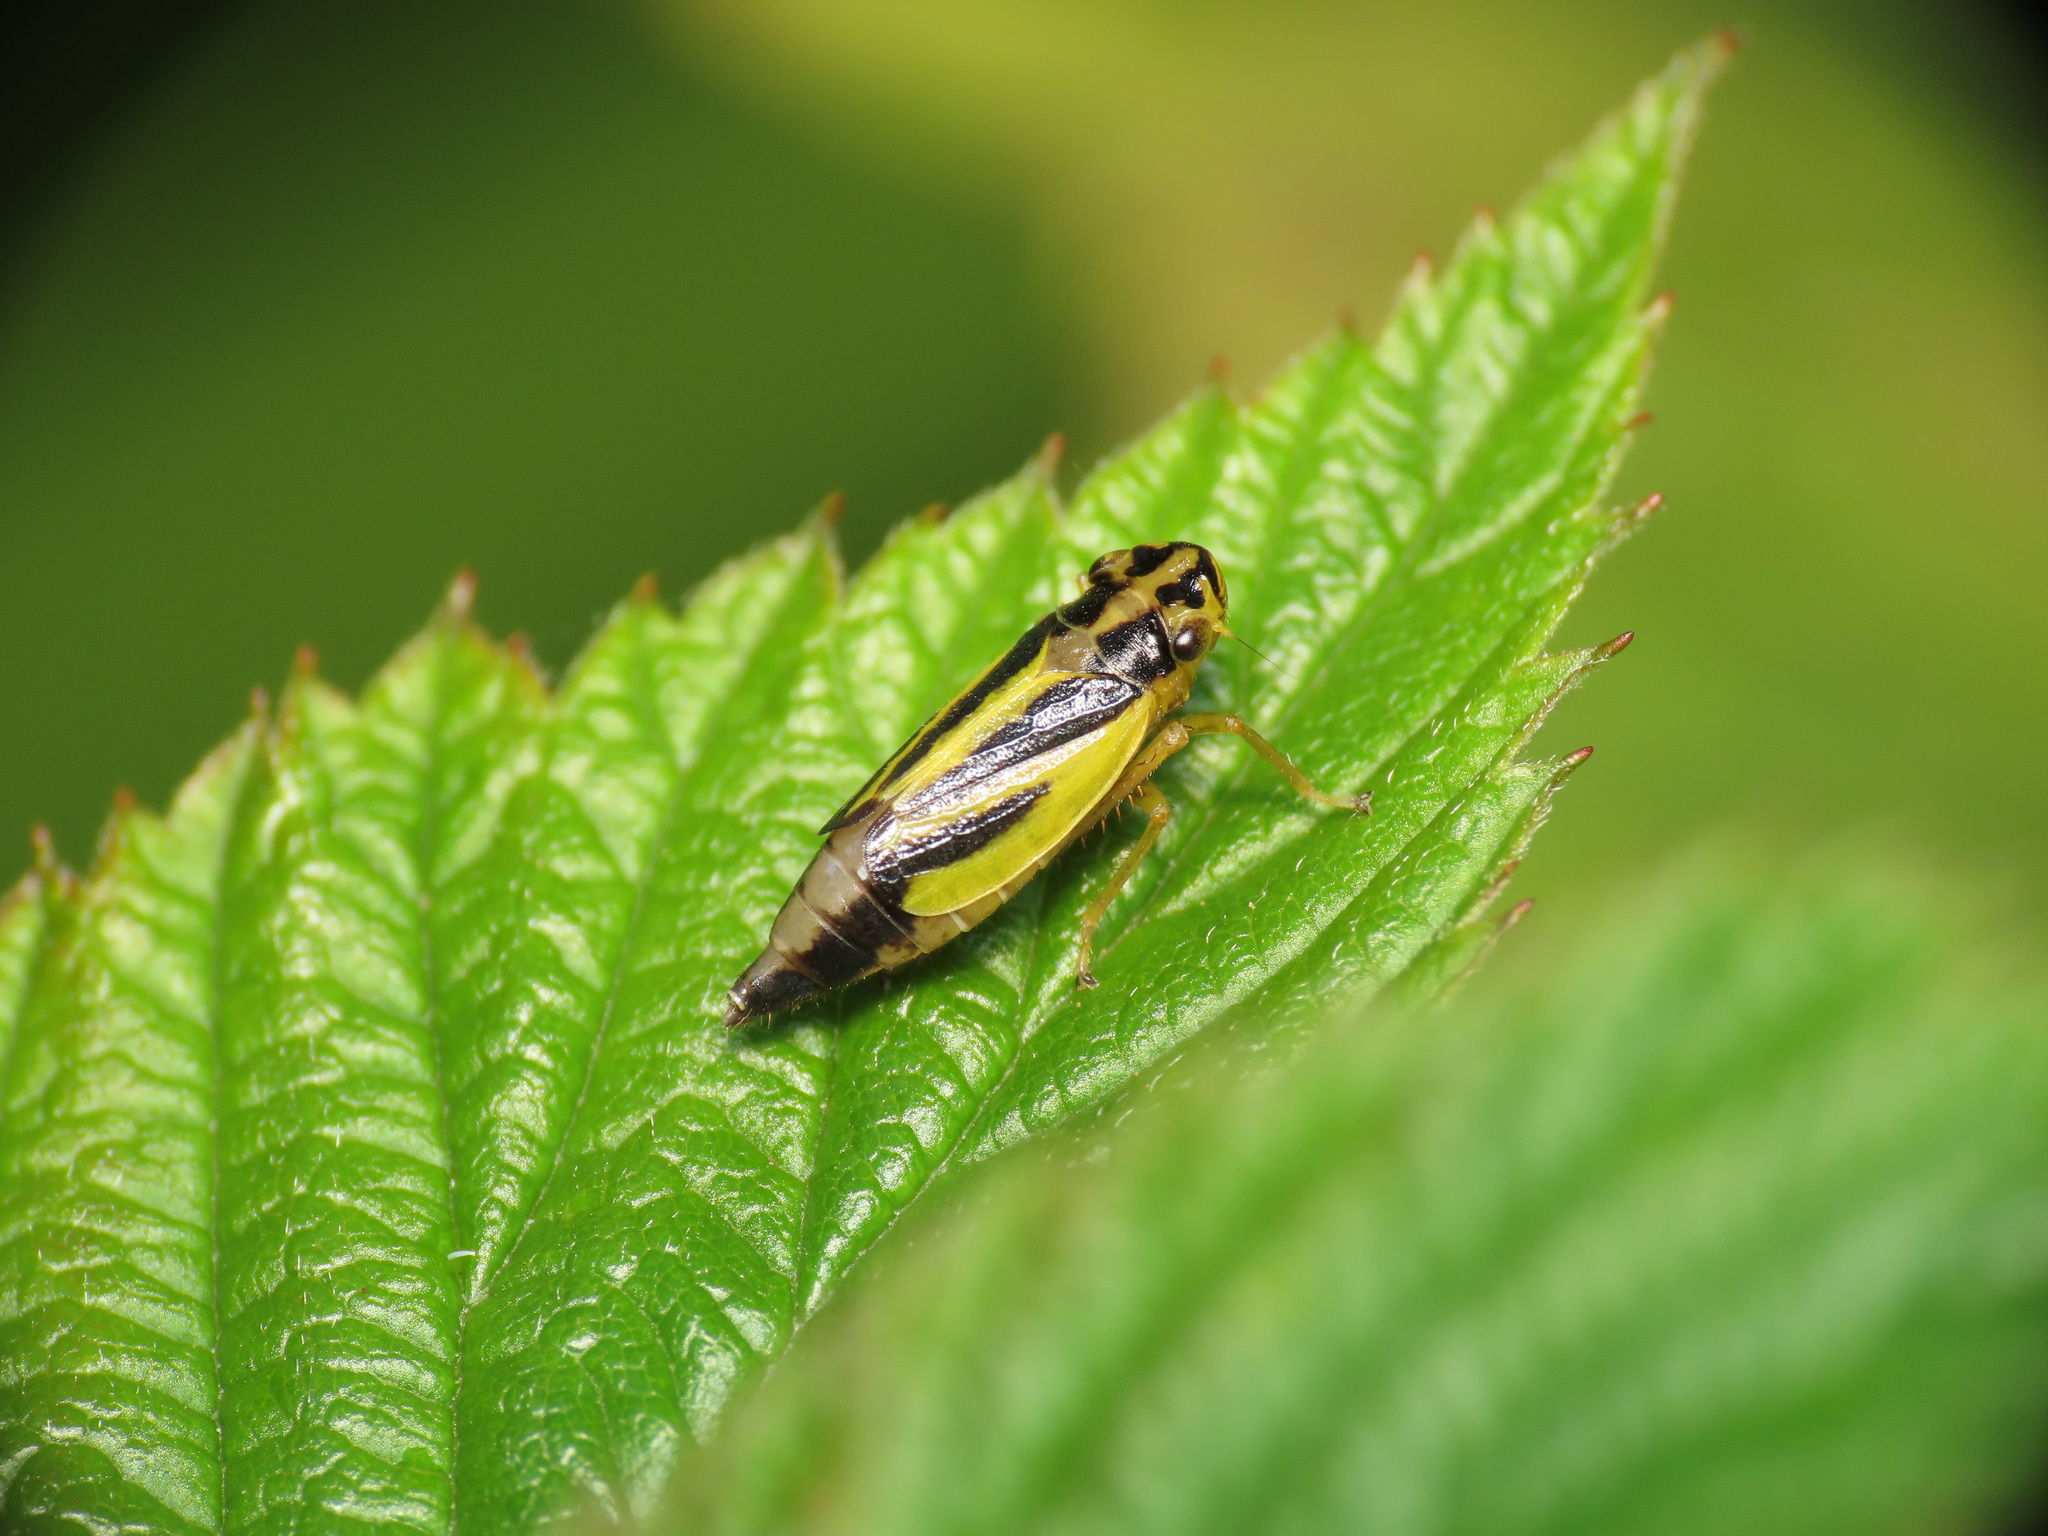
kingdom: Animalia
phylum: Arthropoda
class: Insecta
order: Hemiptera
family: Cicadellidae
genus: Evacanthus
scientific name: Evacanthus interruptus
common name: Leafhopper
